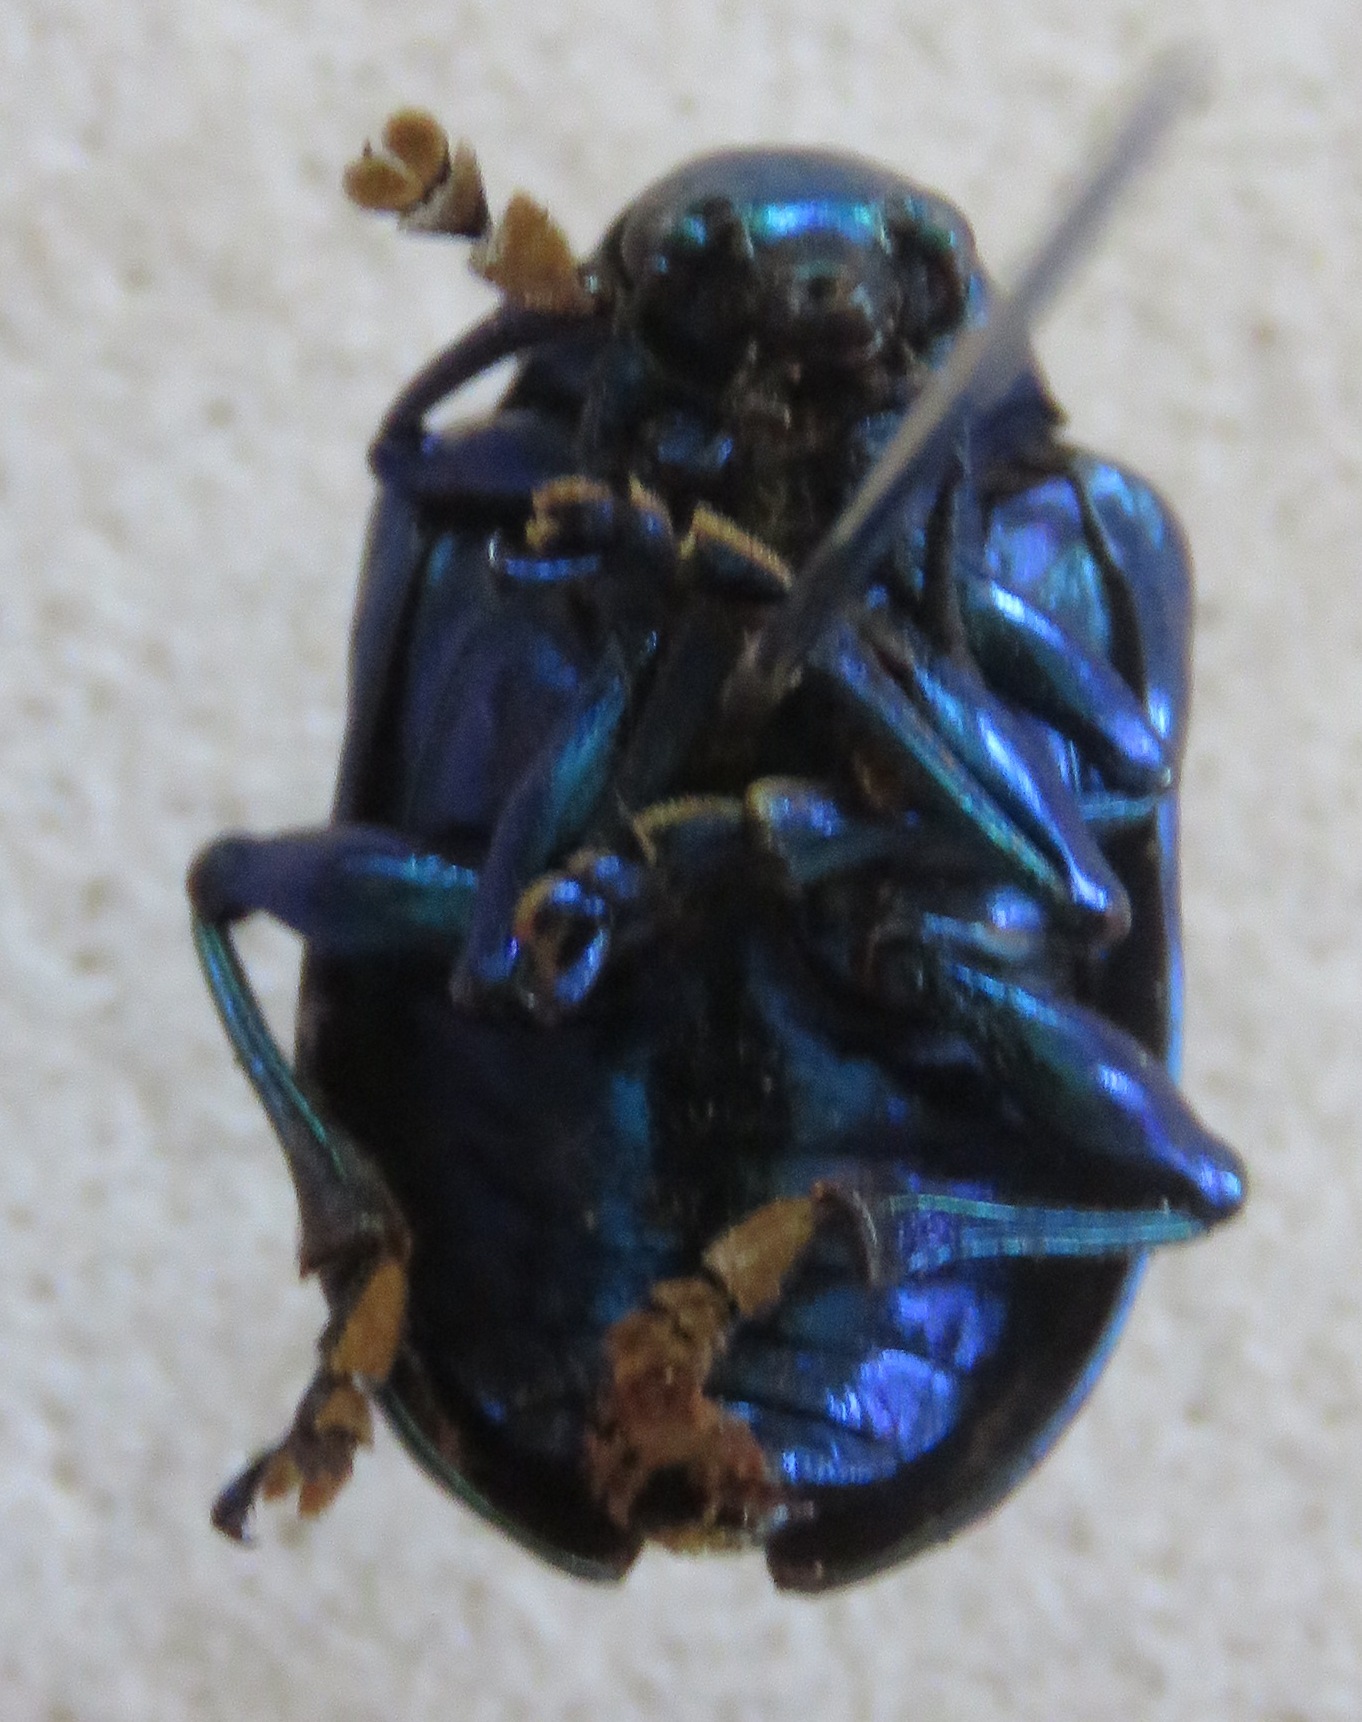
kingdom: Animalia
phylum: Arthropoda
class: Insecta
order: Coleoptera
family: Chrysomelidae
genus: Eumolpus
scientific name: Eumolpus robustus
